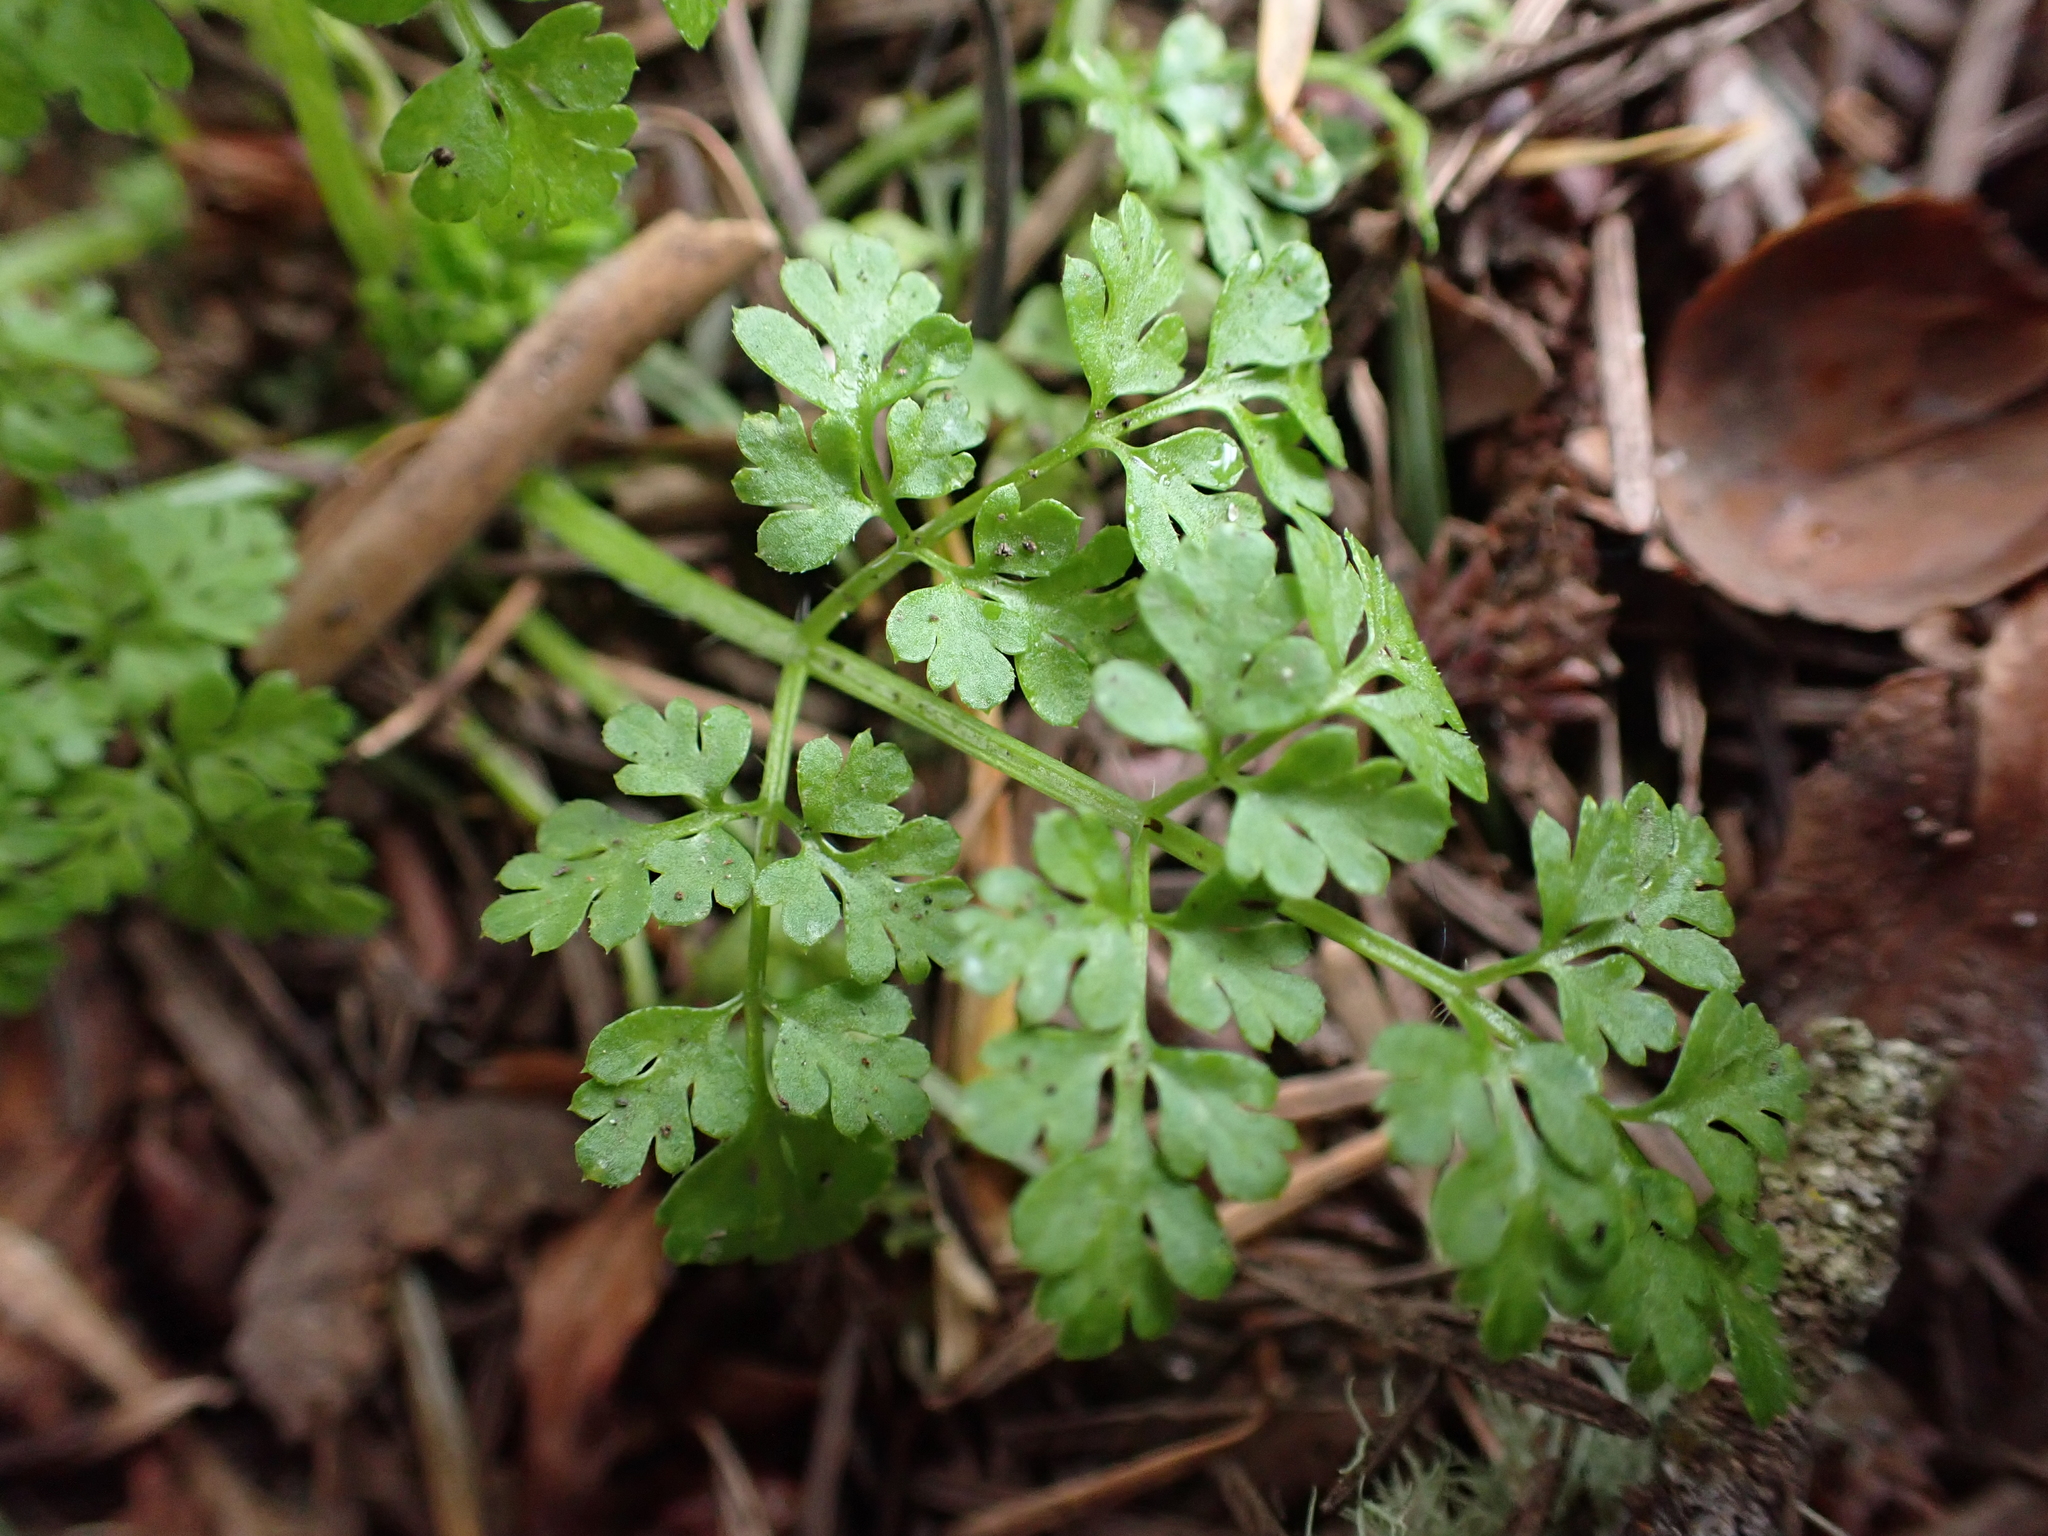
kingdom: Plantae
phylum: Tracheophyta
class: Magnoliopsida
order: Apiales
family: Apiaceae
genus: Anthriscus
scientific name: Anthriscus caucalis
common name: Bur chervil
